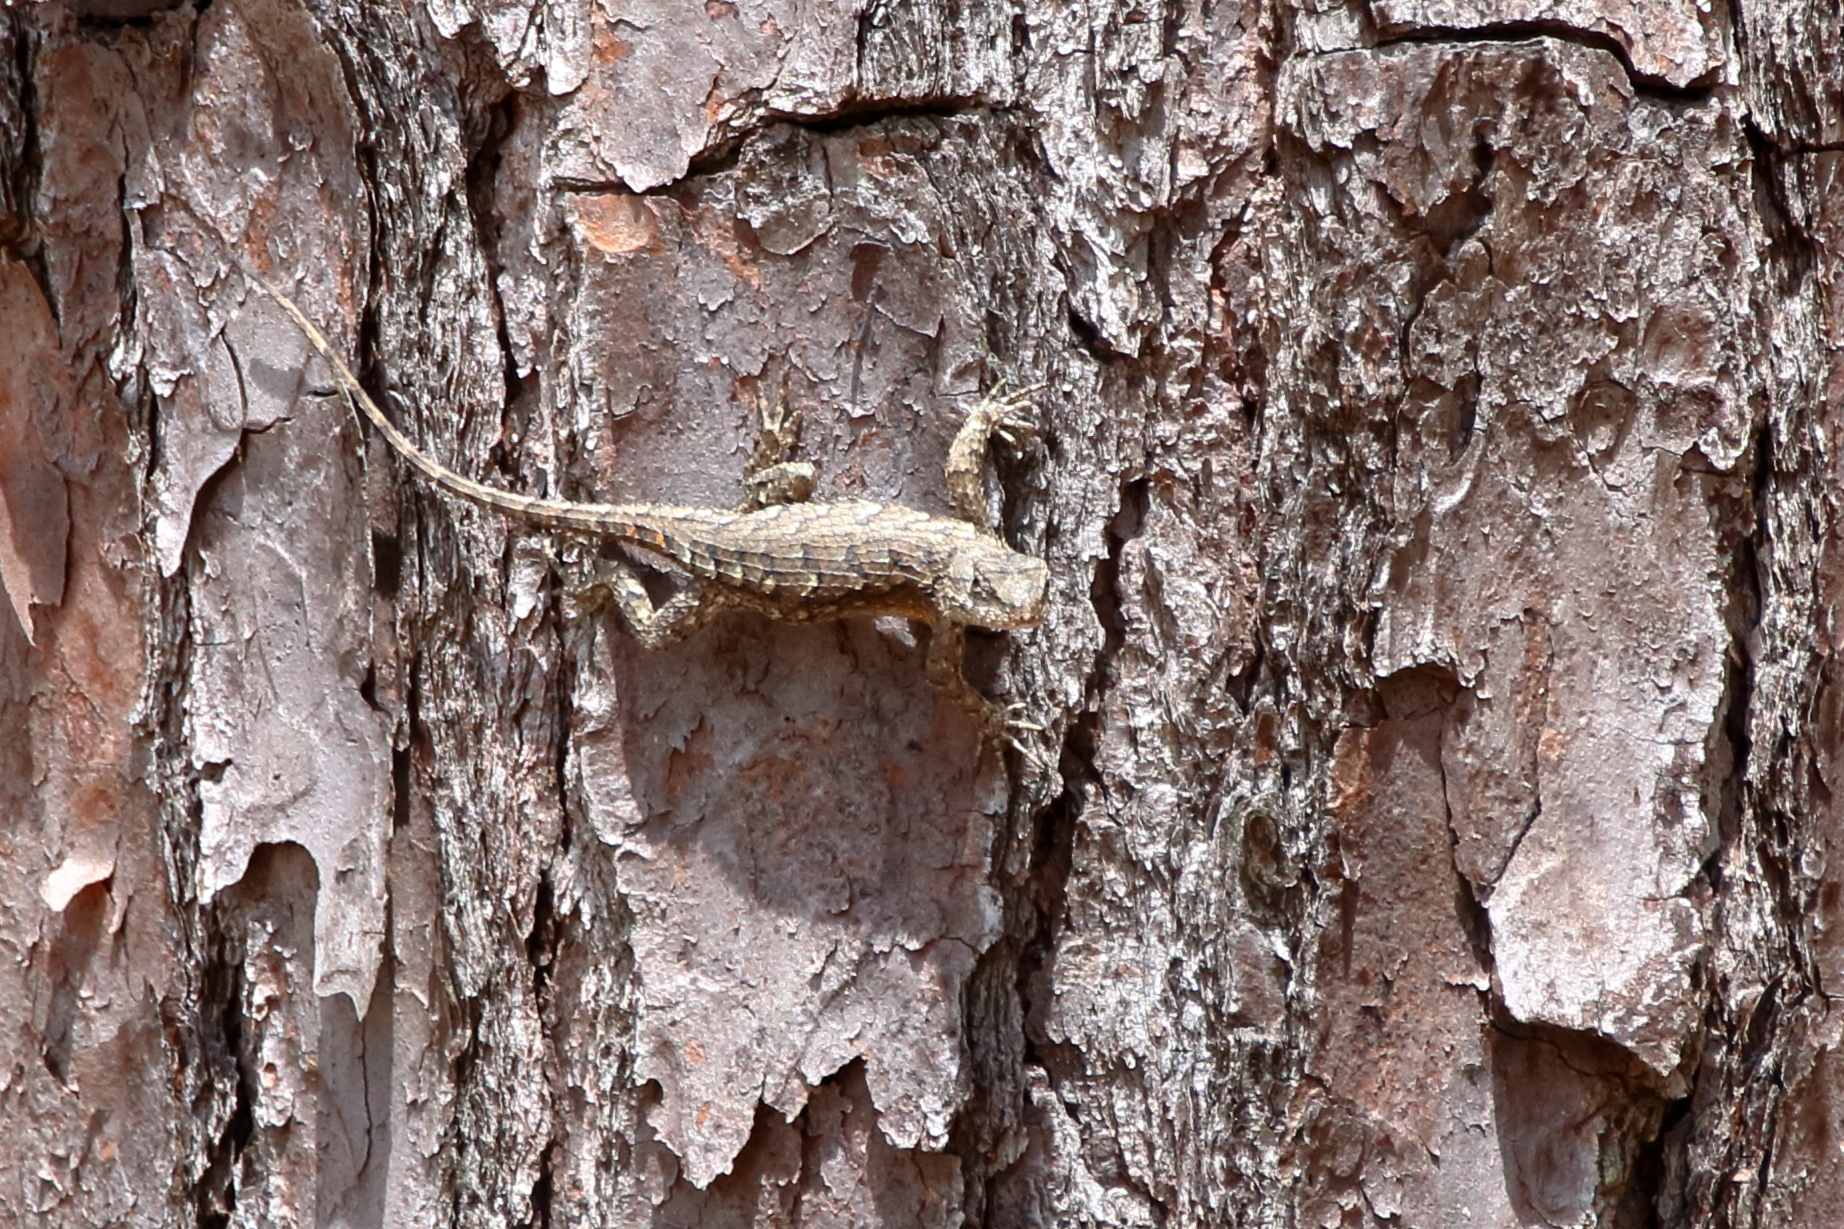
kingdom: Animalia
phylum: Chordata
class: Squamata
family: Phrynosomatidae
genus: Sceloporus
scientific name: Sceloporus consobrinus
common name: Southern prairie lizard
